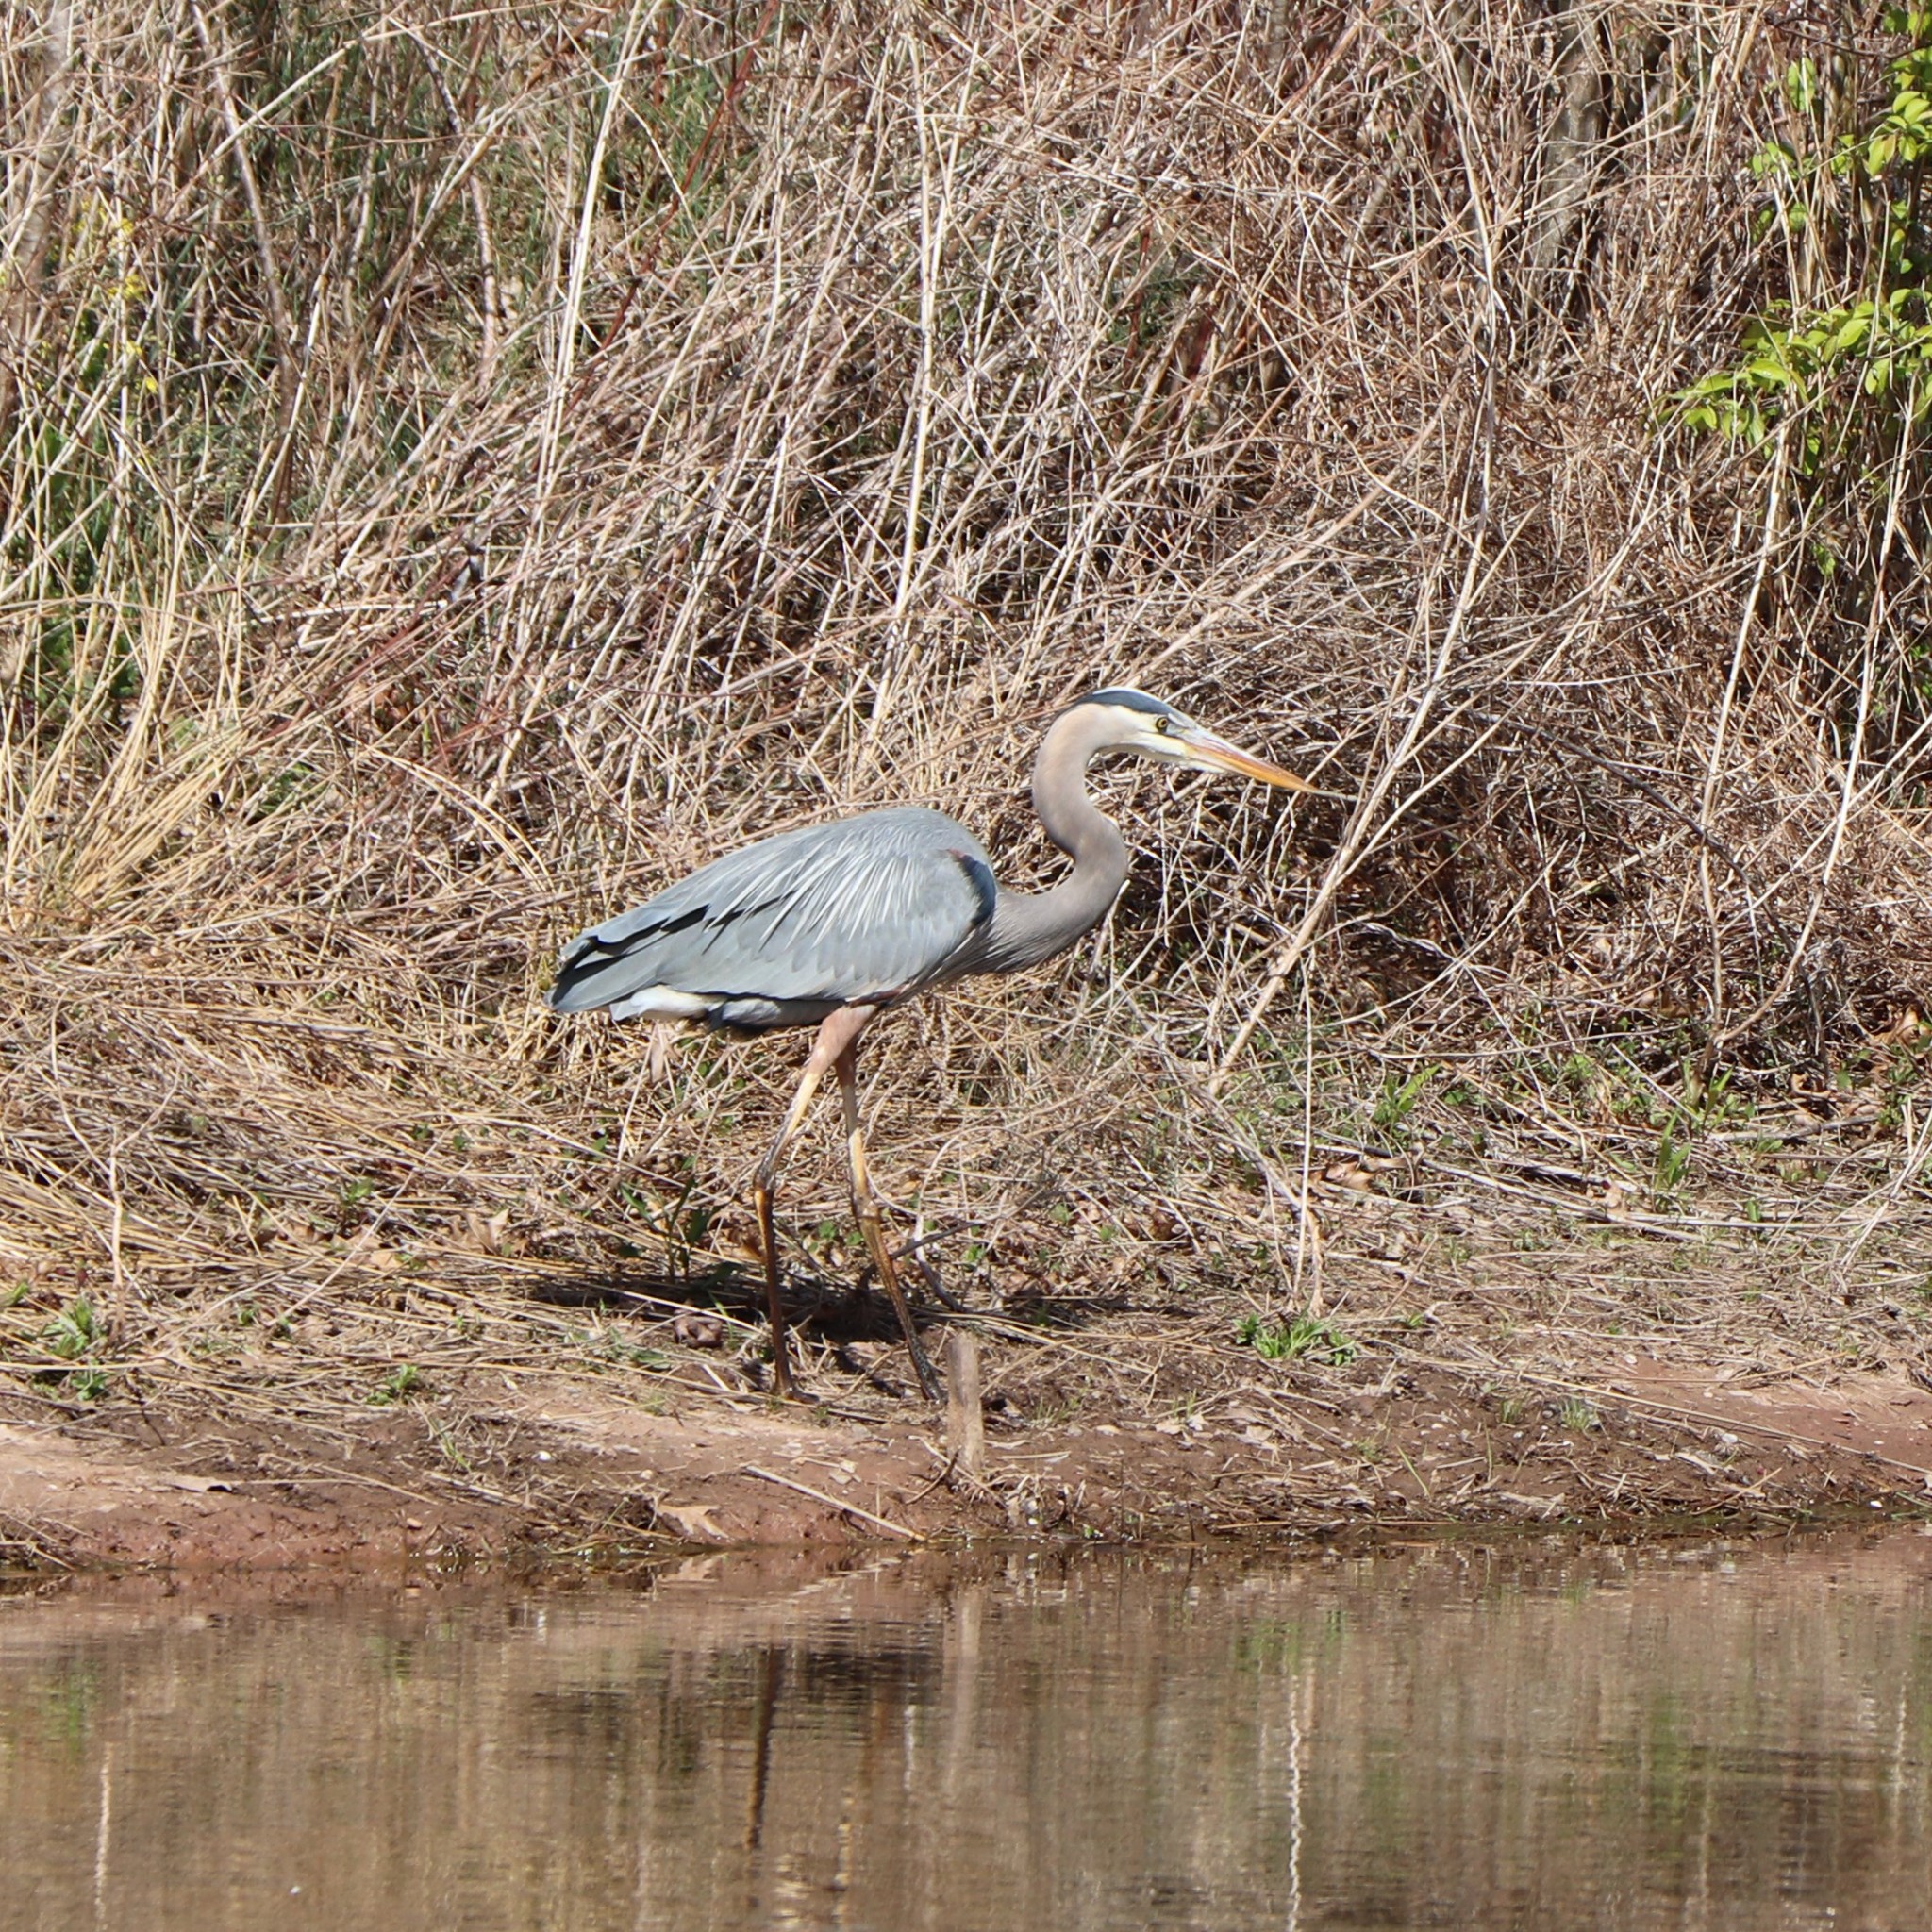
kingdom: Animalia
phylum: Chordata
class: Aves
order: Pelecaniformes
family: Ardeidae
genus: Ardea
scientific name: Ardea herodias
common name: Great blue heron
